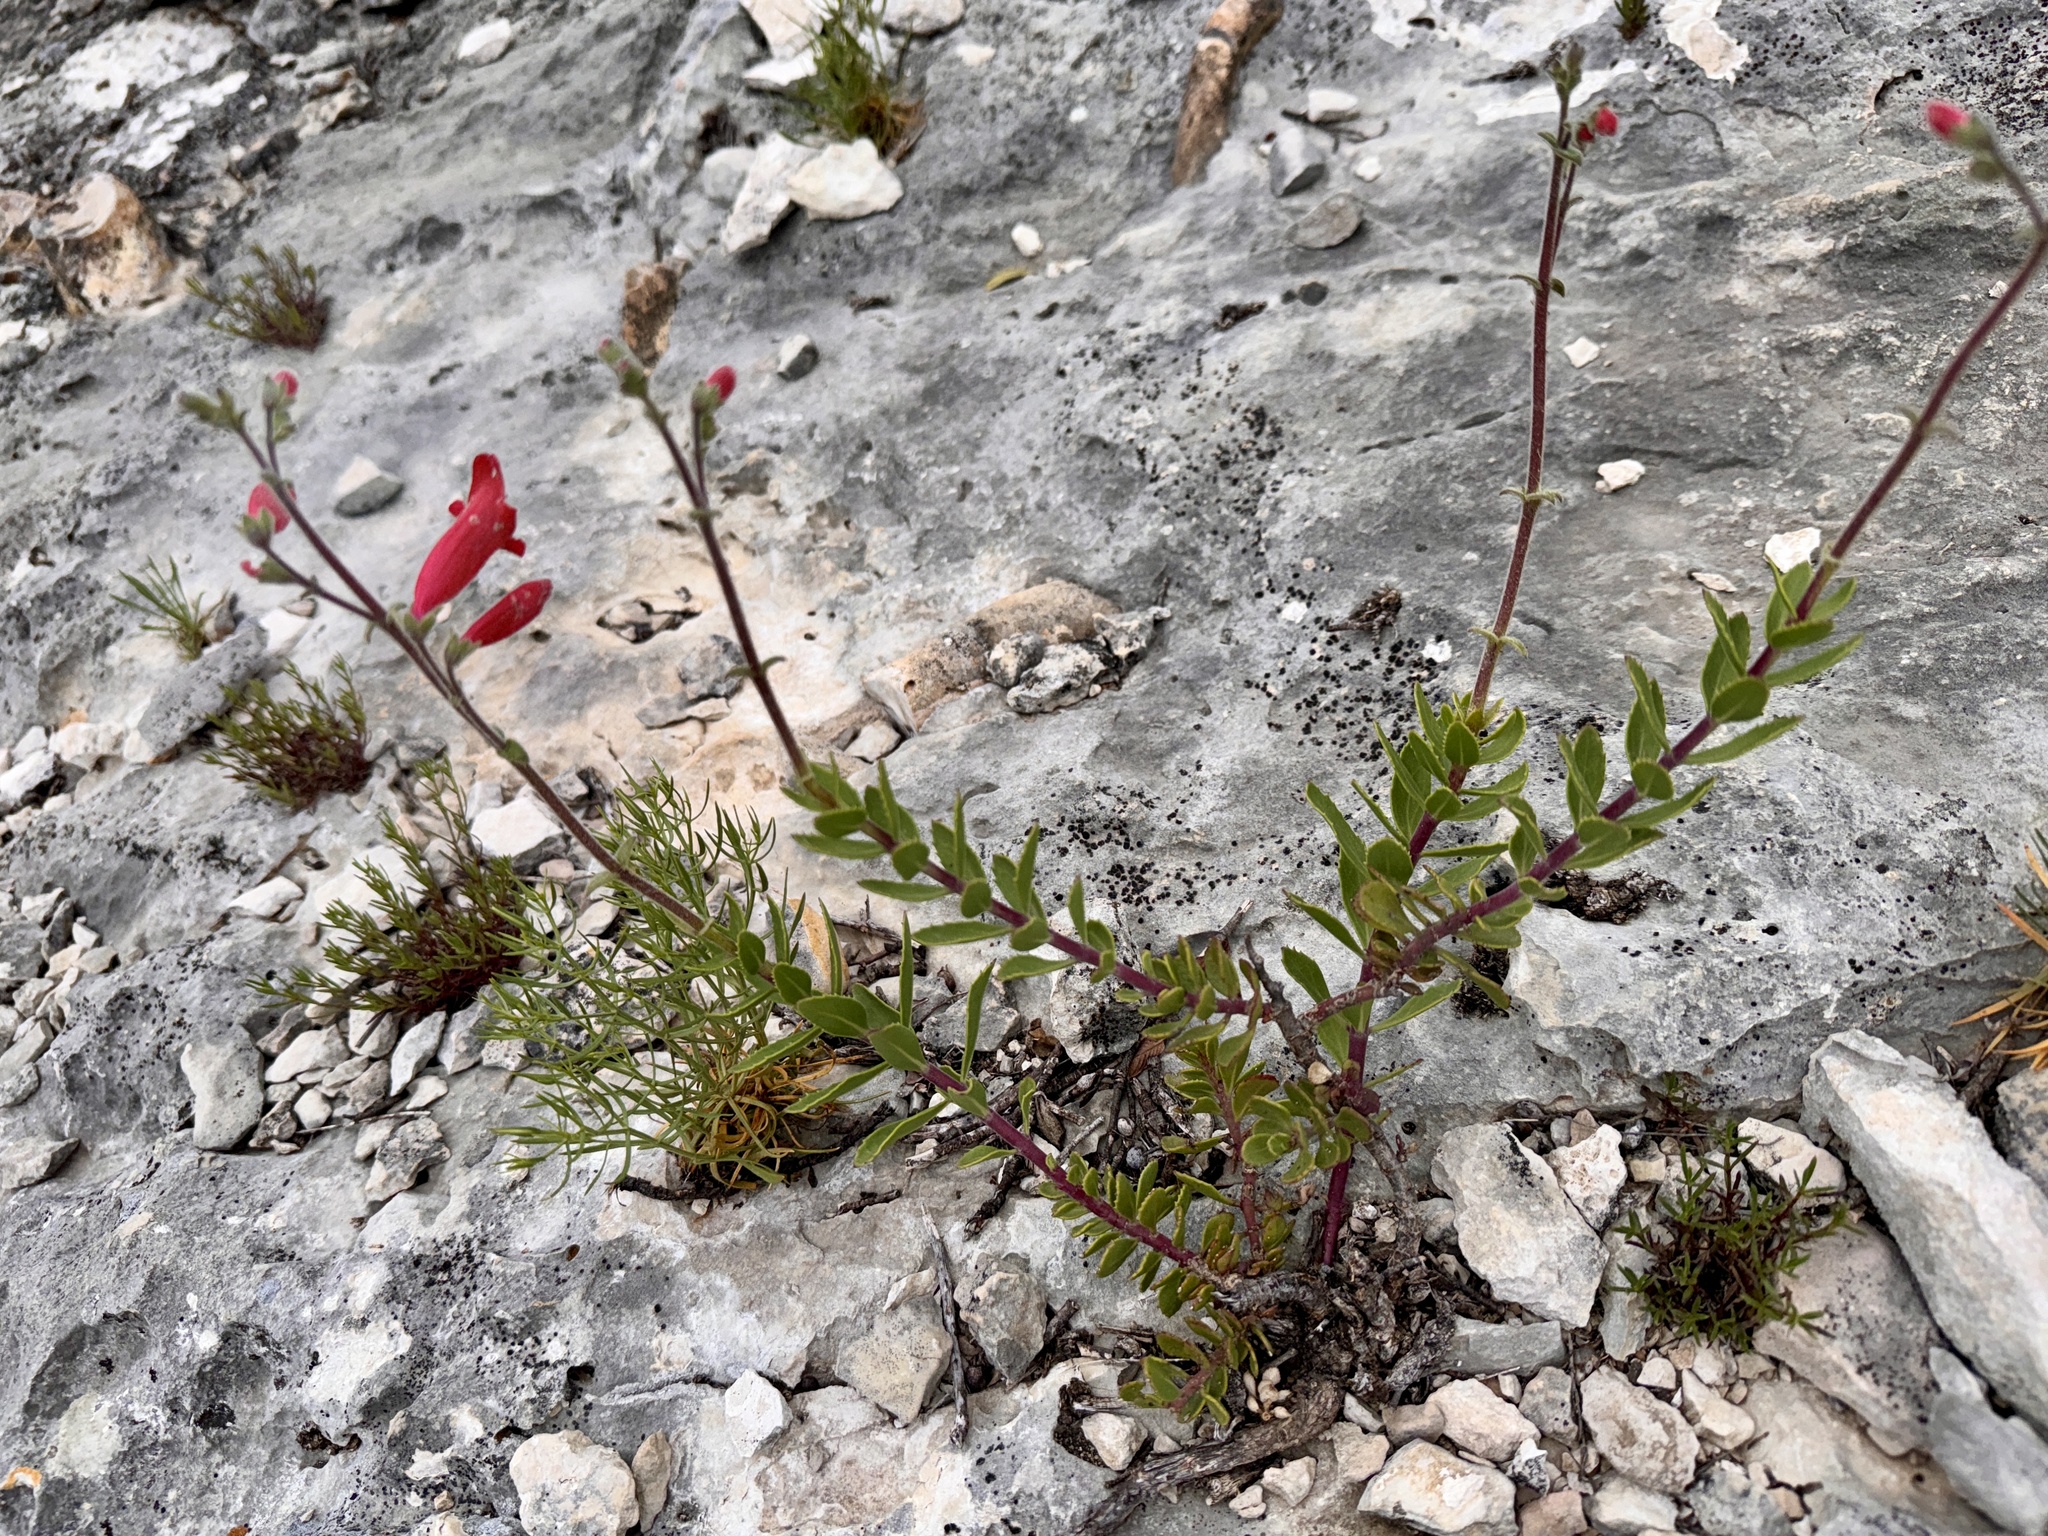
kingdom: Plantae
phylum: Tracheophyta
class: Magnoliopsida
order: Lamiales
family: Plantaginaceae
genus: Penstemon
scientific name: Penstemon baccharifolius
